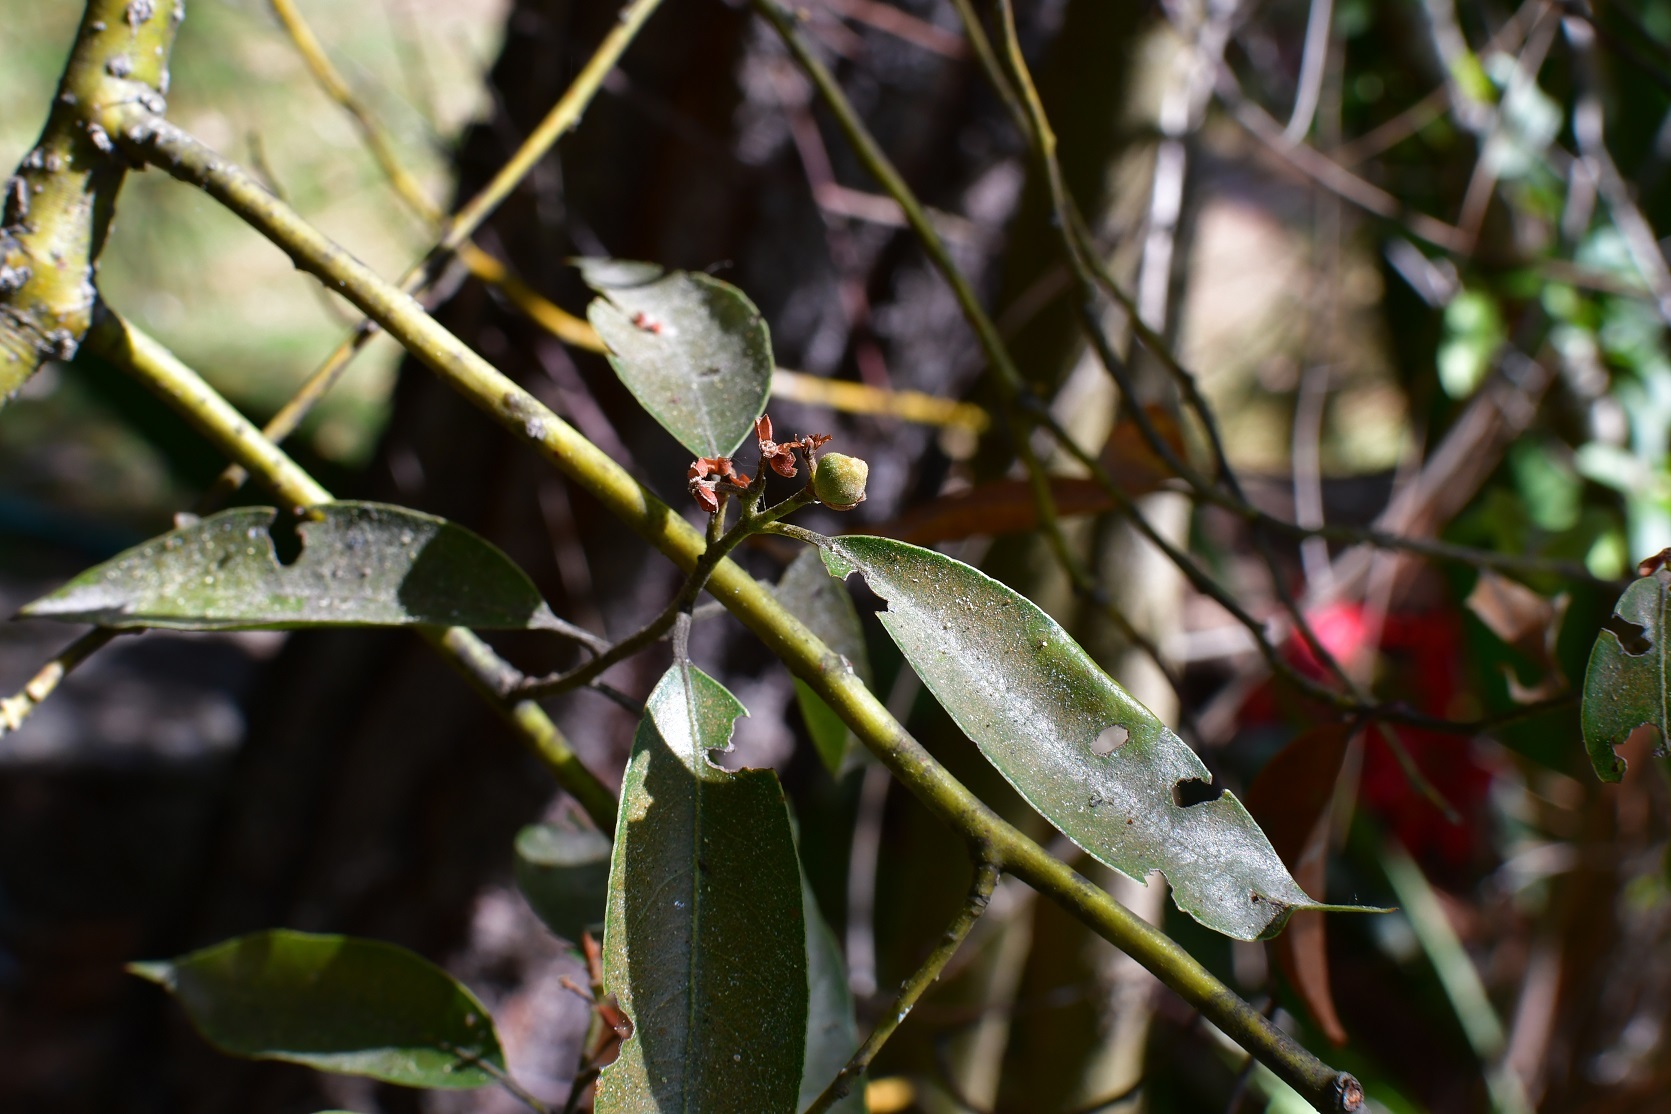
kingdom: Plantae
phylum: Tracheophyta
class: Magnoliopsida
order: Laurales
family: Lauraceae
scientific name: Lauraceae
